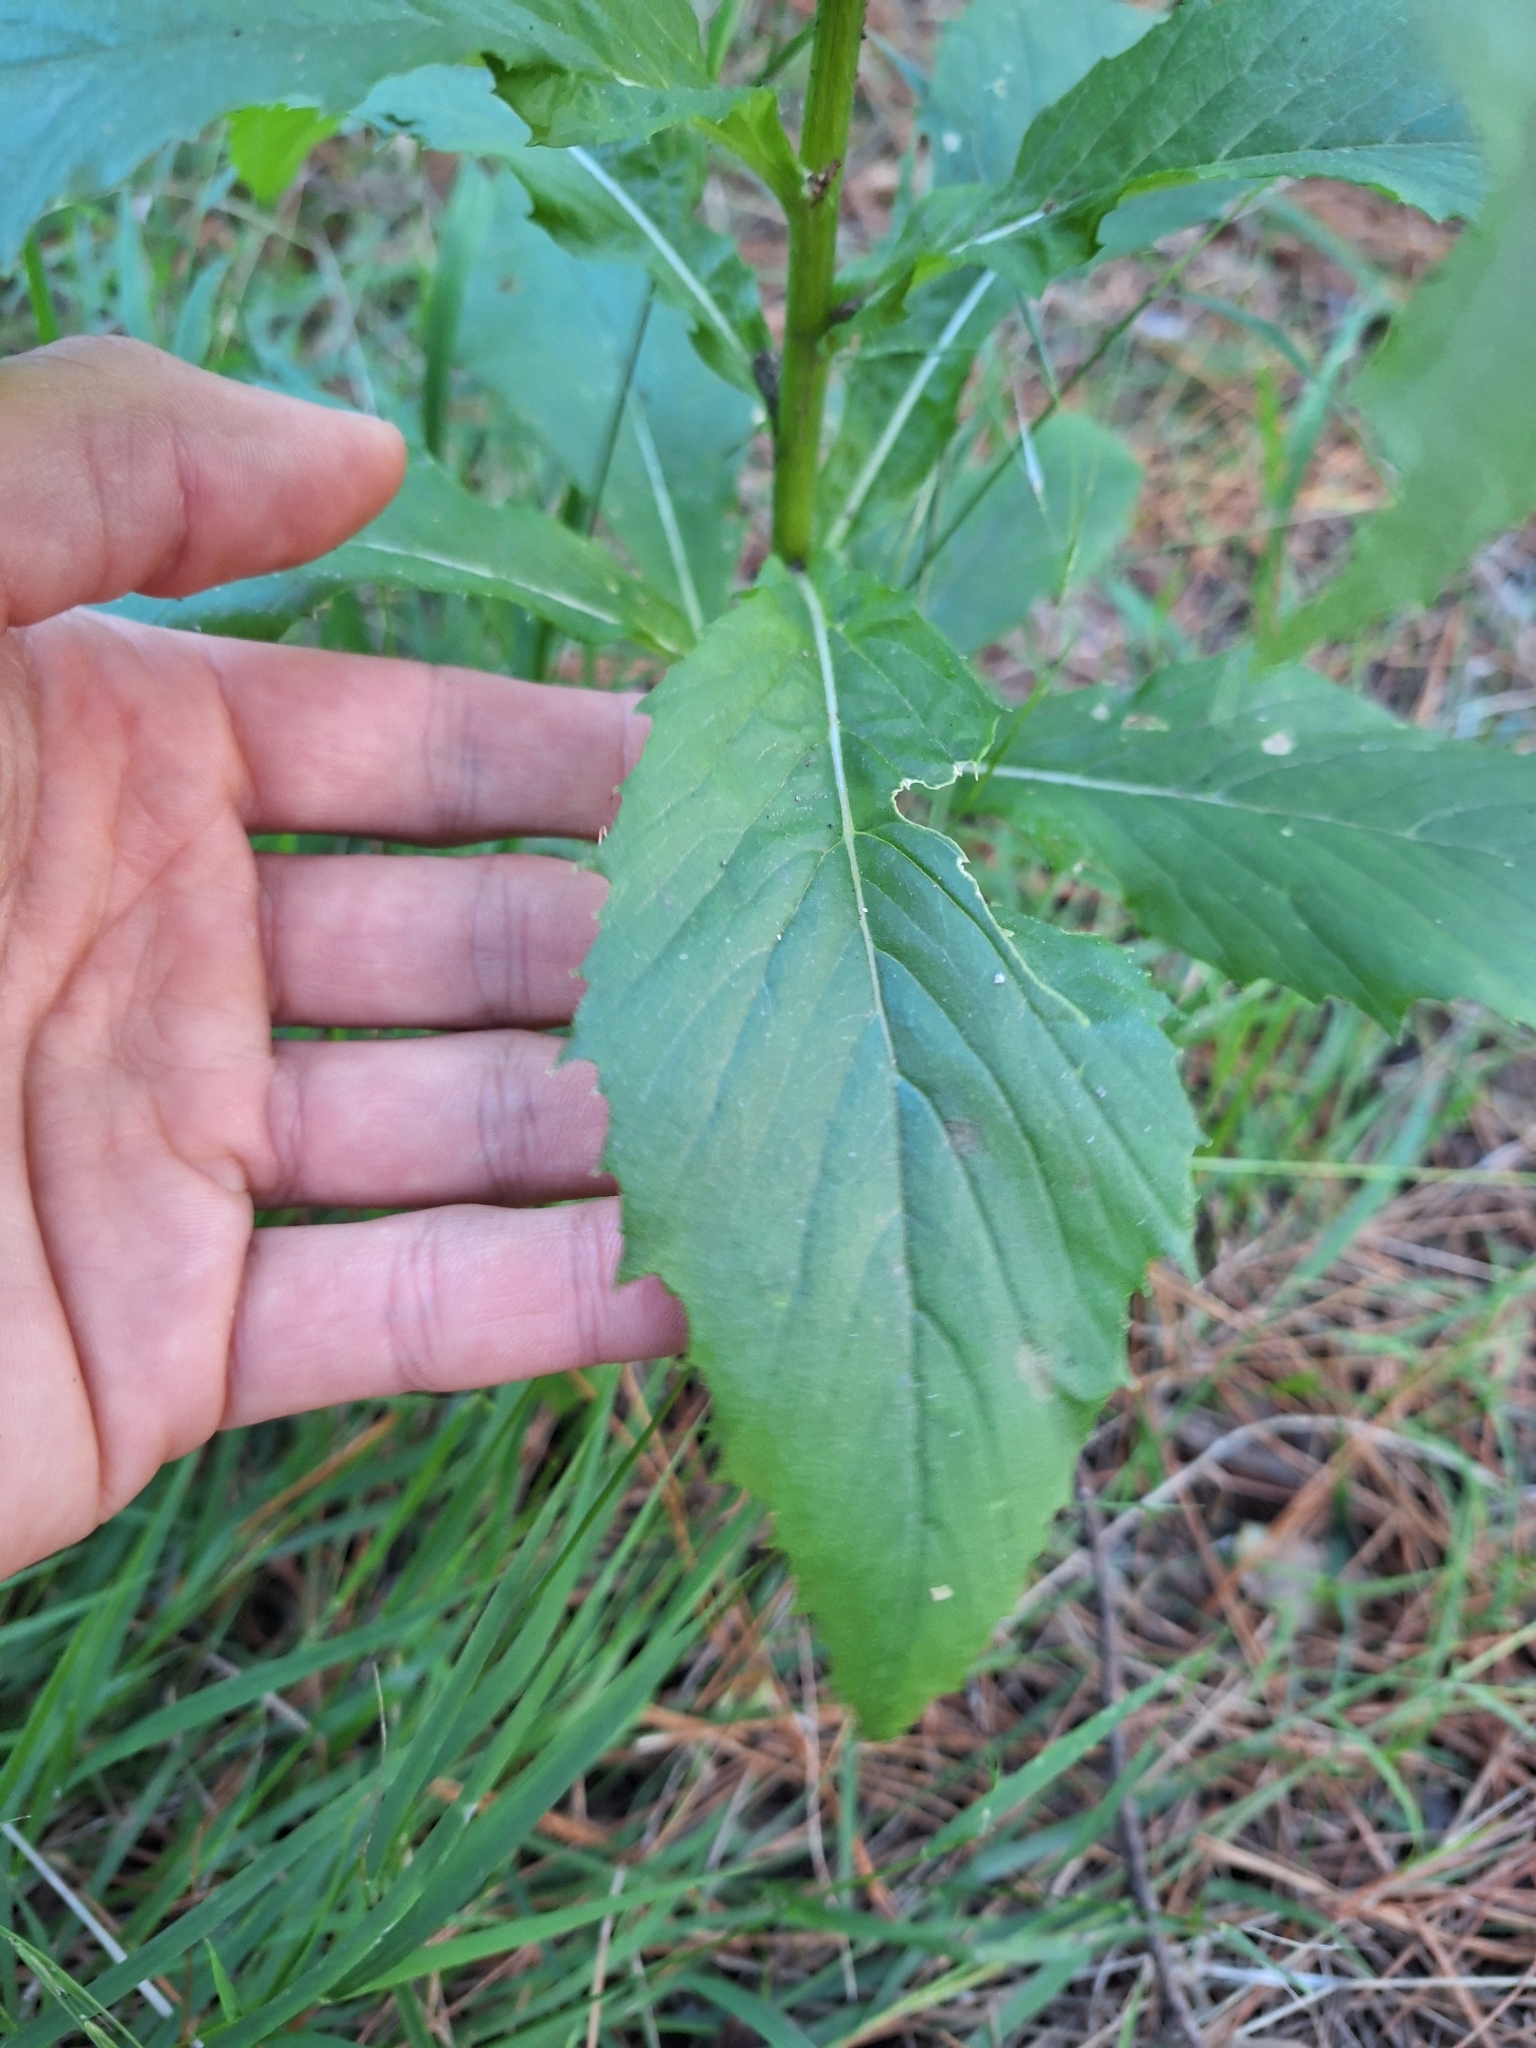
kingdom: Plantae
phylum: Tracheophyta
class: Magnoliopsida
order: Asterales
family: Asteraceae
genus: Erechtites
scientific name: Erechtites hieraciifolius
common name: American burnweed
